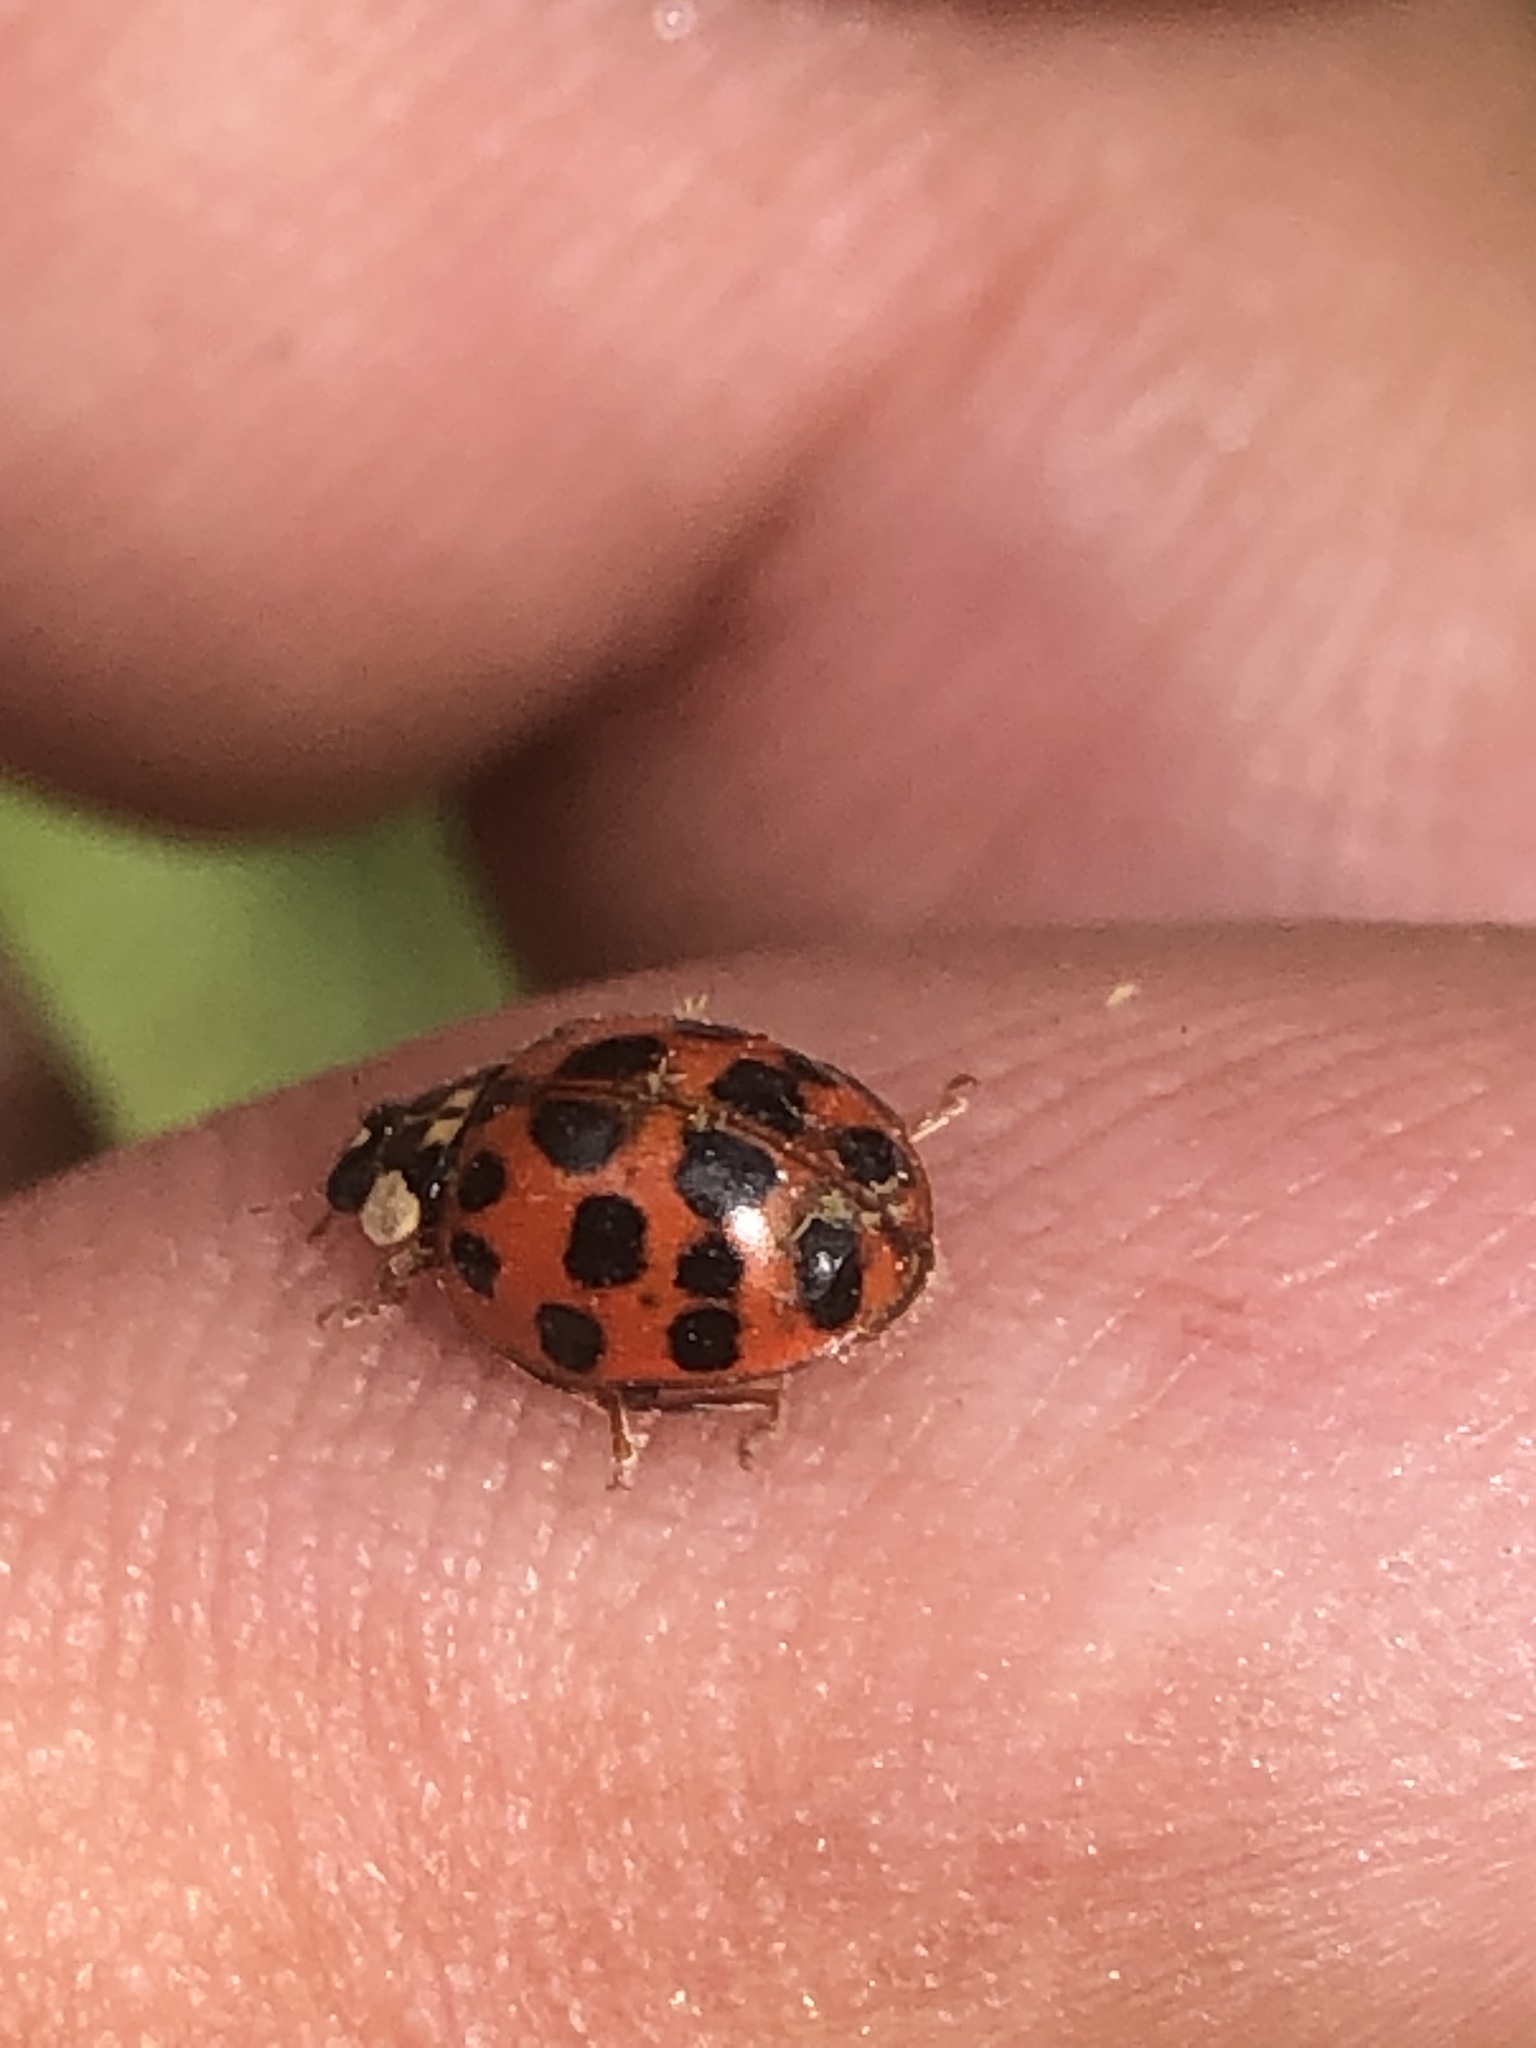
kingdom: Animalia
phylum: Arthropoda
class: Insecta
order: Coleoptera
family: Coccinellidae
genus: Harmonia
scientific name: Harmonia axyridis
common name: Harlequin ladybird
